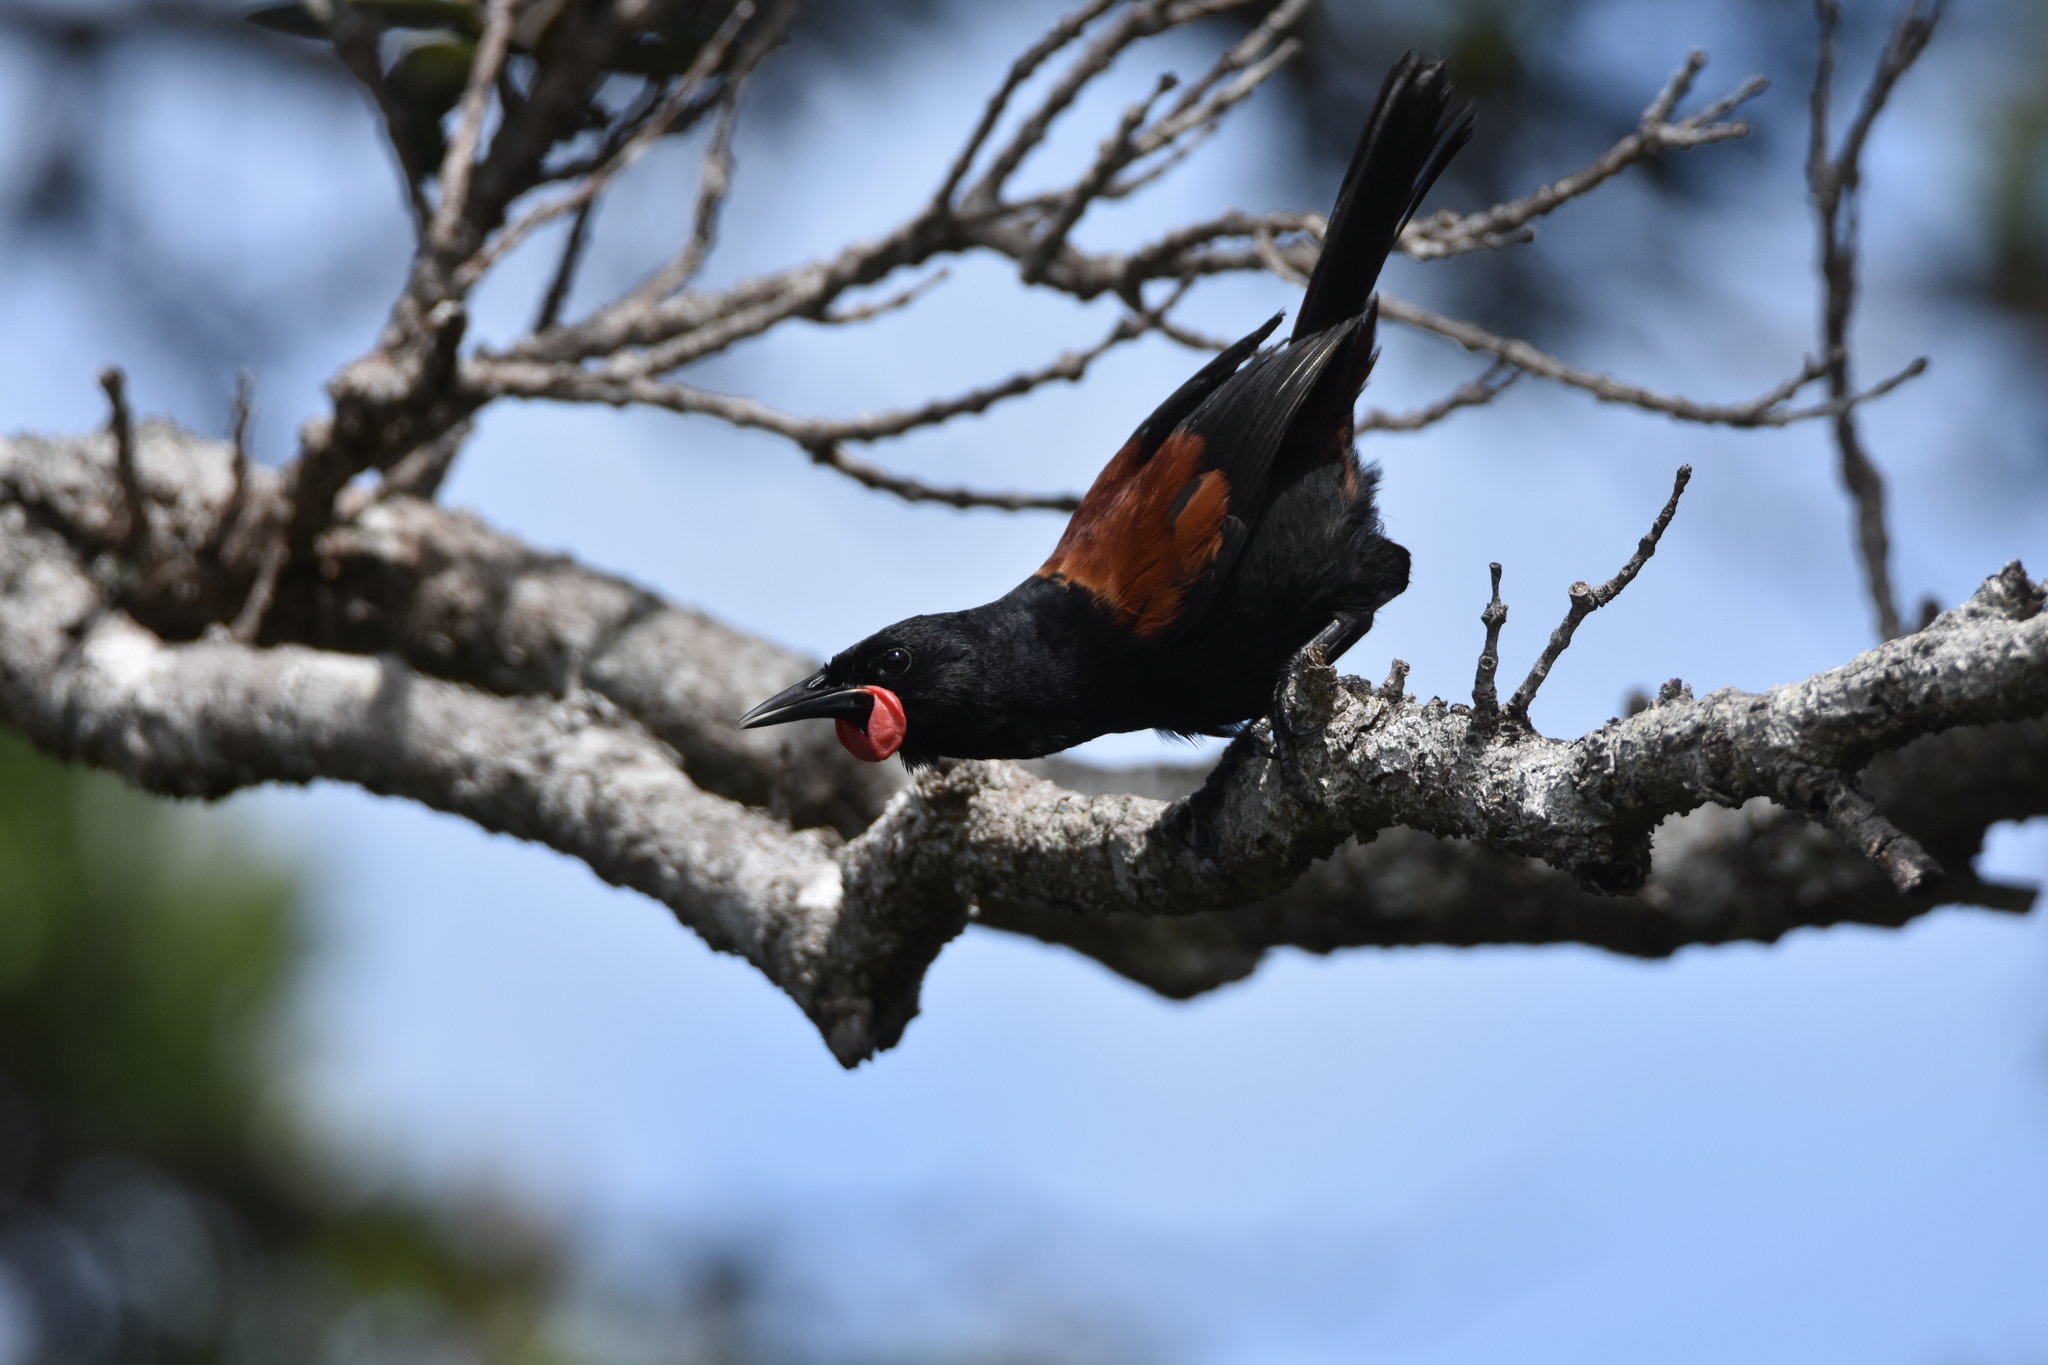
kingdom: Animalia
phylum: Chordata
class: Aves
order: Passeriformes
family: Callaeatidae
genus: Philesturnus
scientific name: Philesturnus carunculatus
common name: South island saddleback
